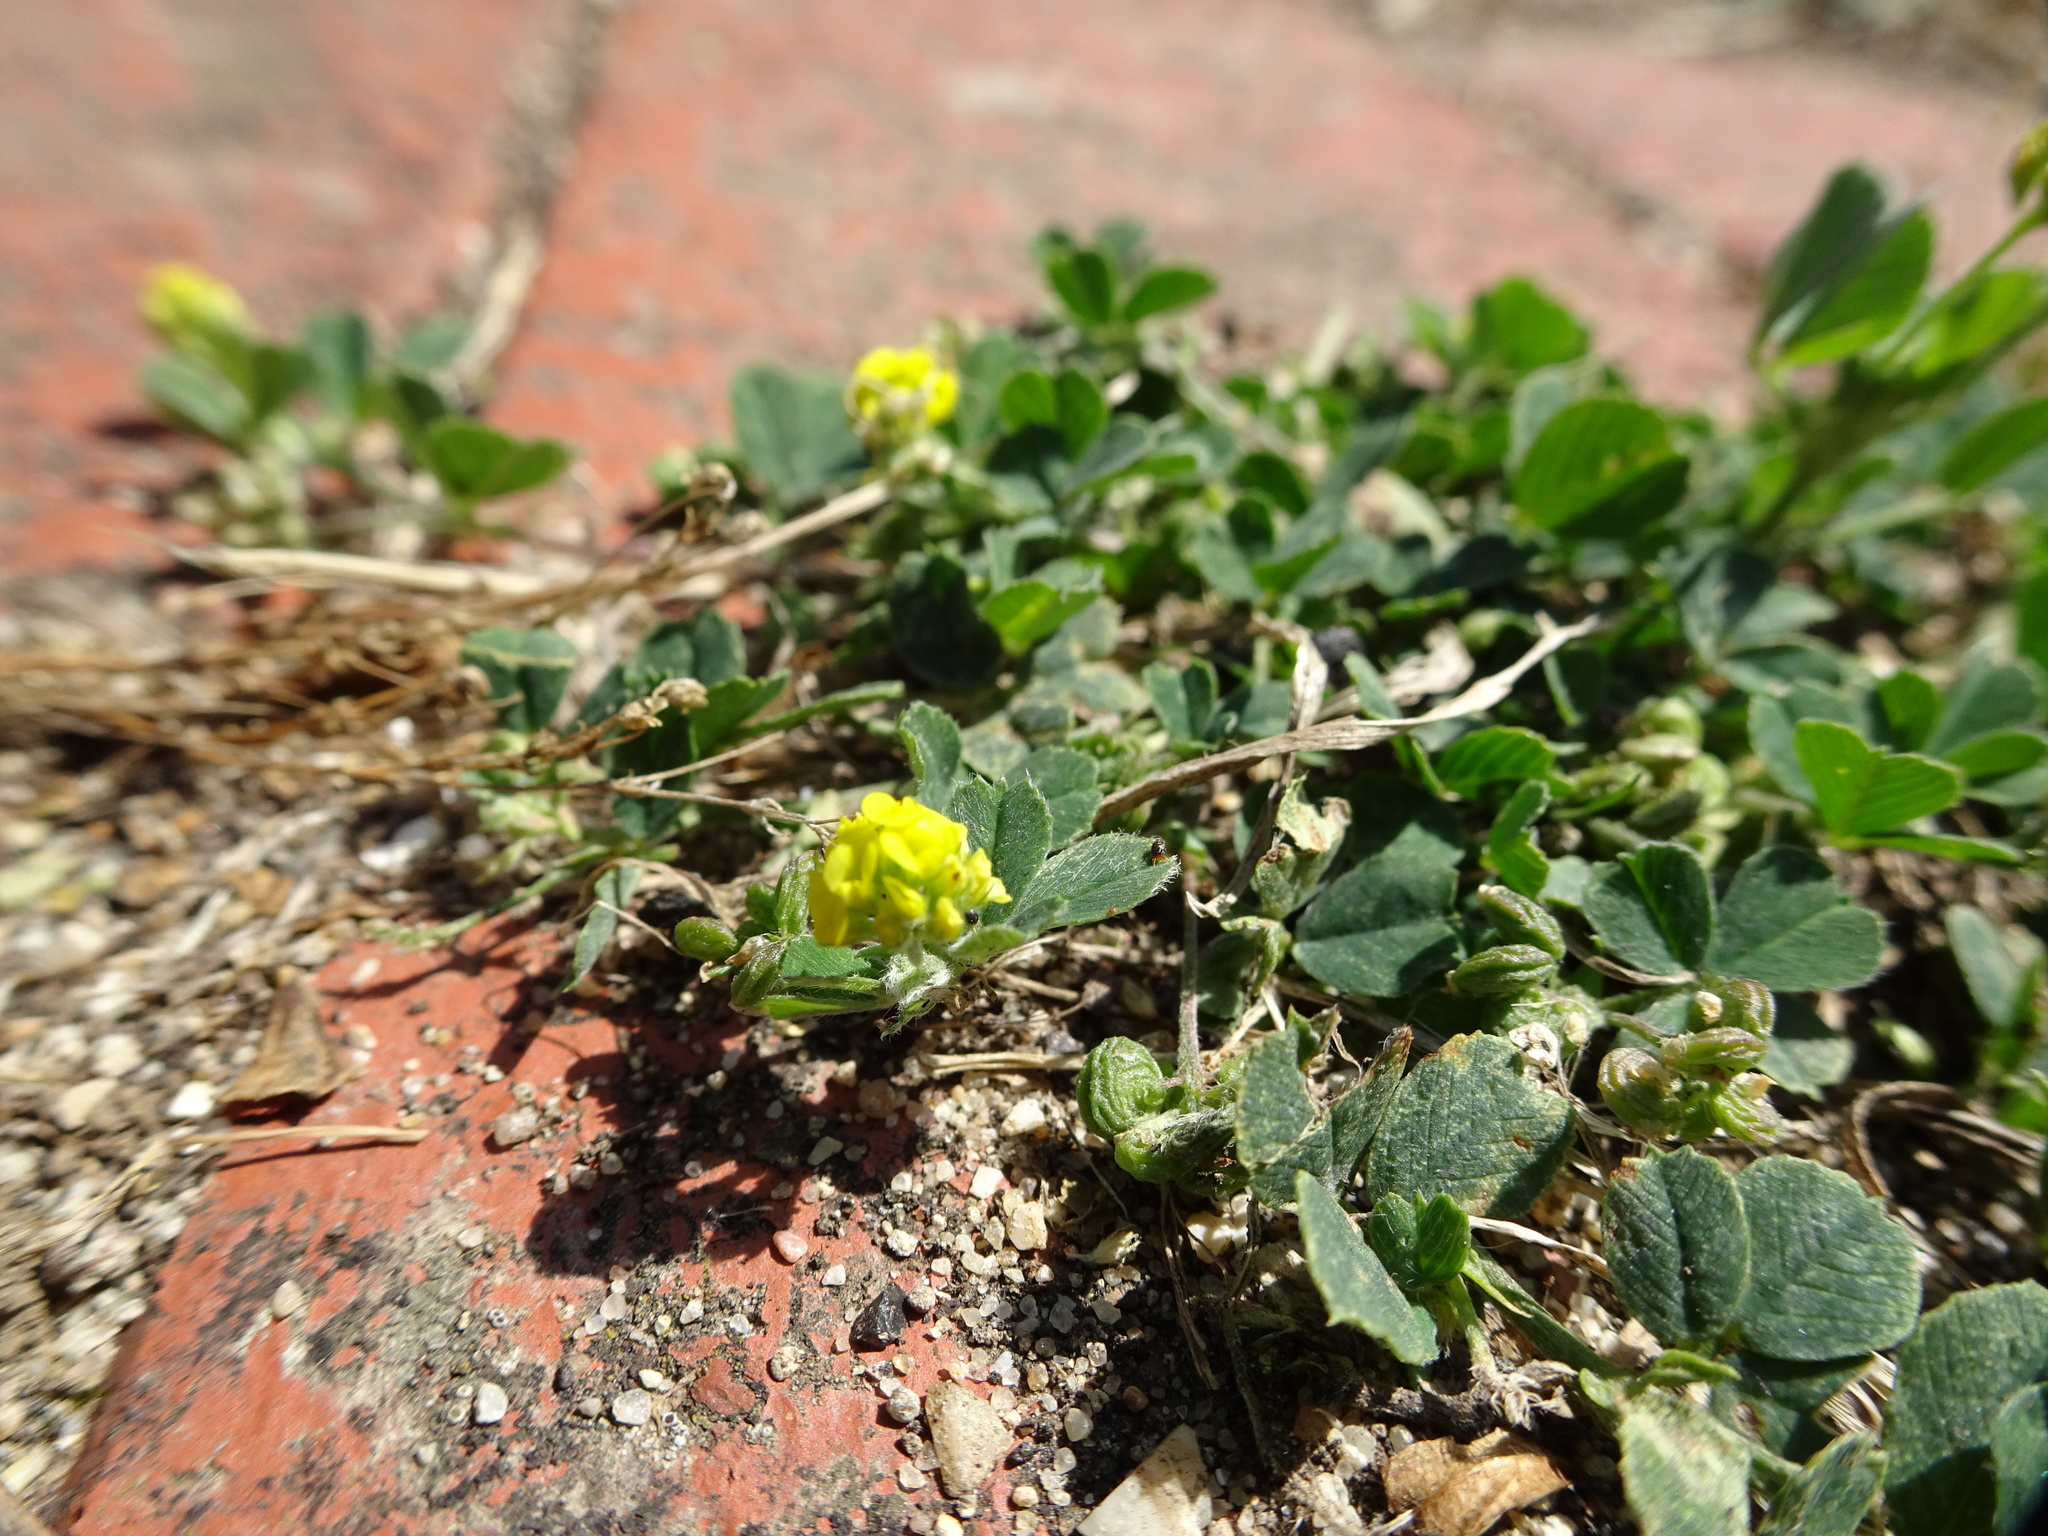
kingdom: Plantae
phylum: Tracheophyta
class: Magnoliopsida
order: Fabales
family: Fabaceae
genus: Medicago
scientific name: Medicago lupulina
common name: Black medick
